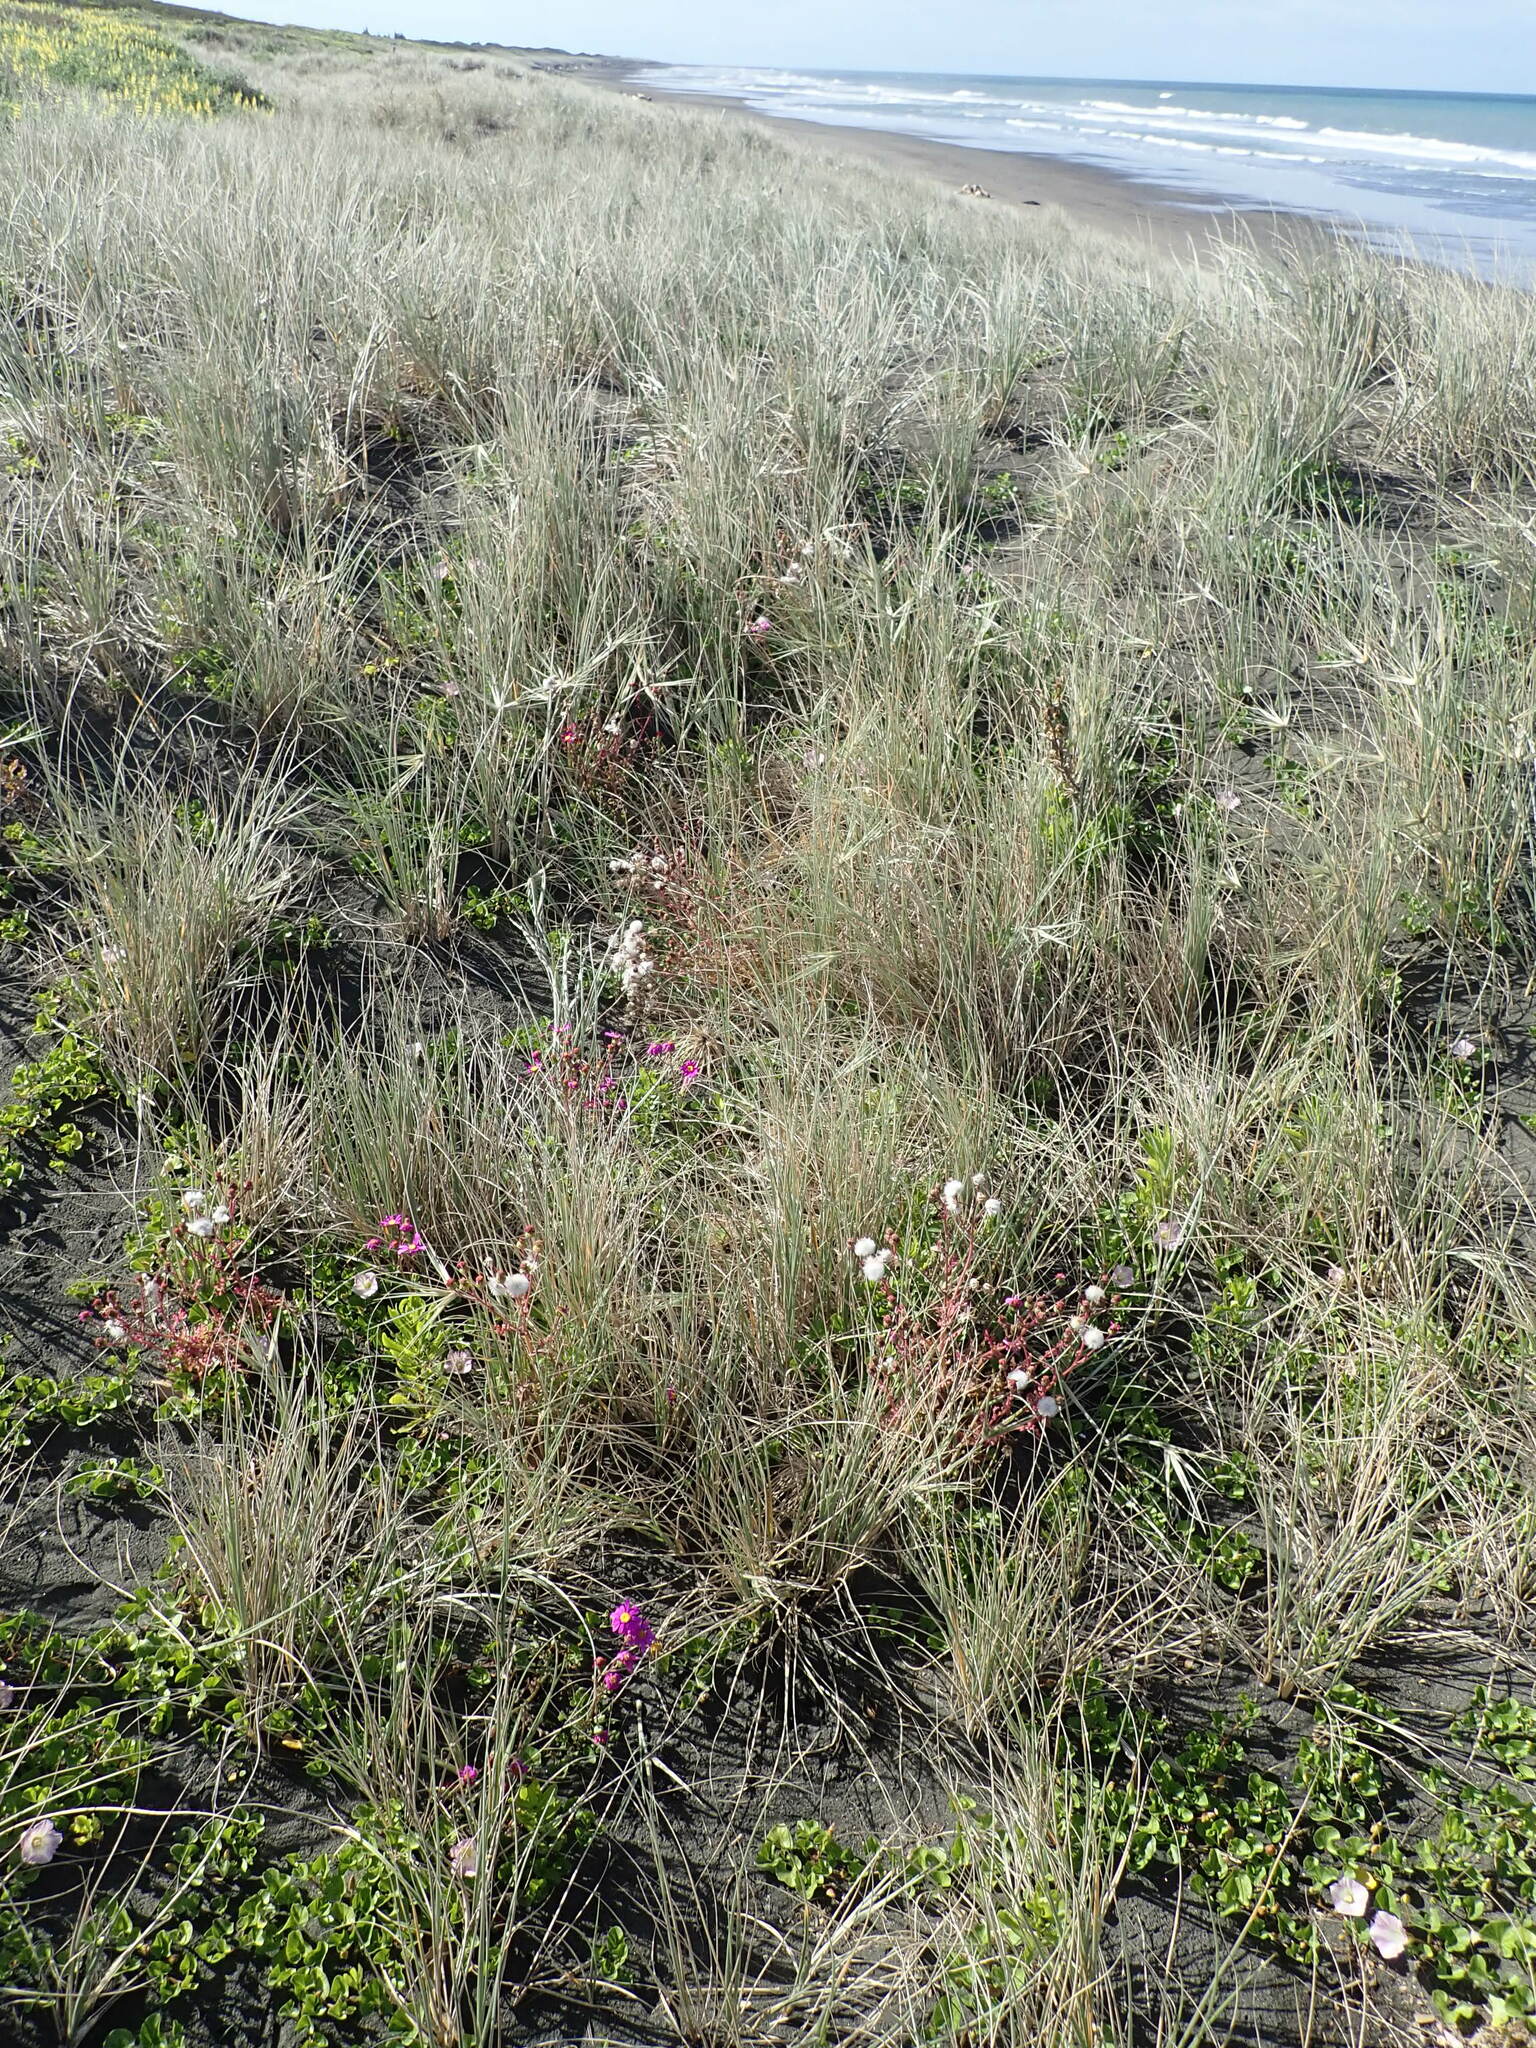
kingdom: Plantae
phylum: Tracheophyta
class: Magnoliopsida
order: Asterales
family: Asteraceae
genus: Senecio
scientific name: Senecio elegans
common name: Purple groundsel
